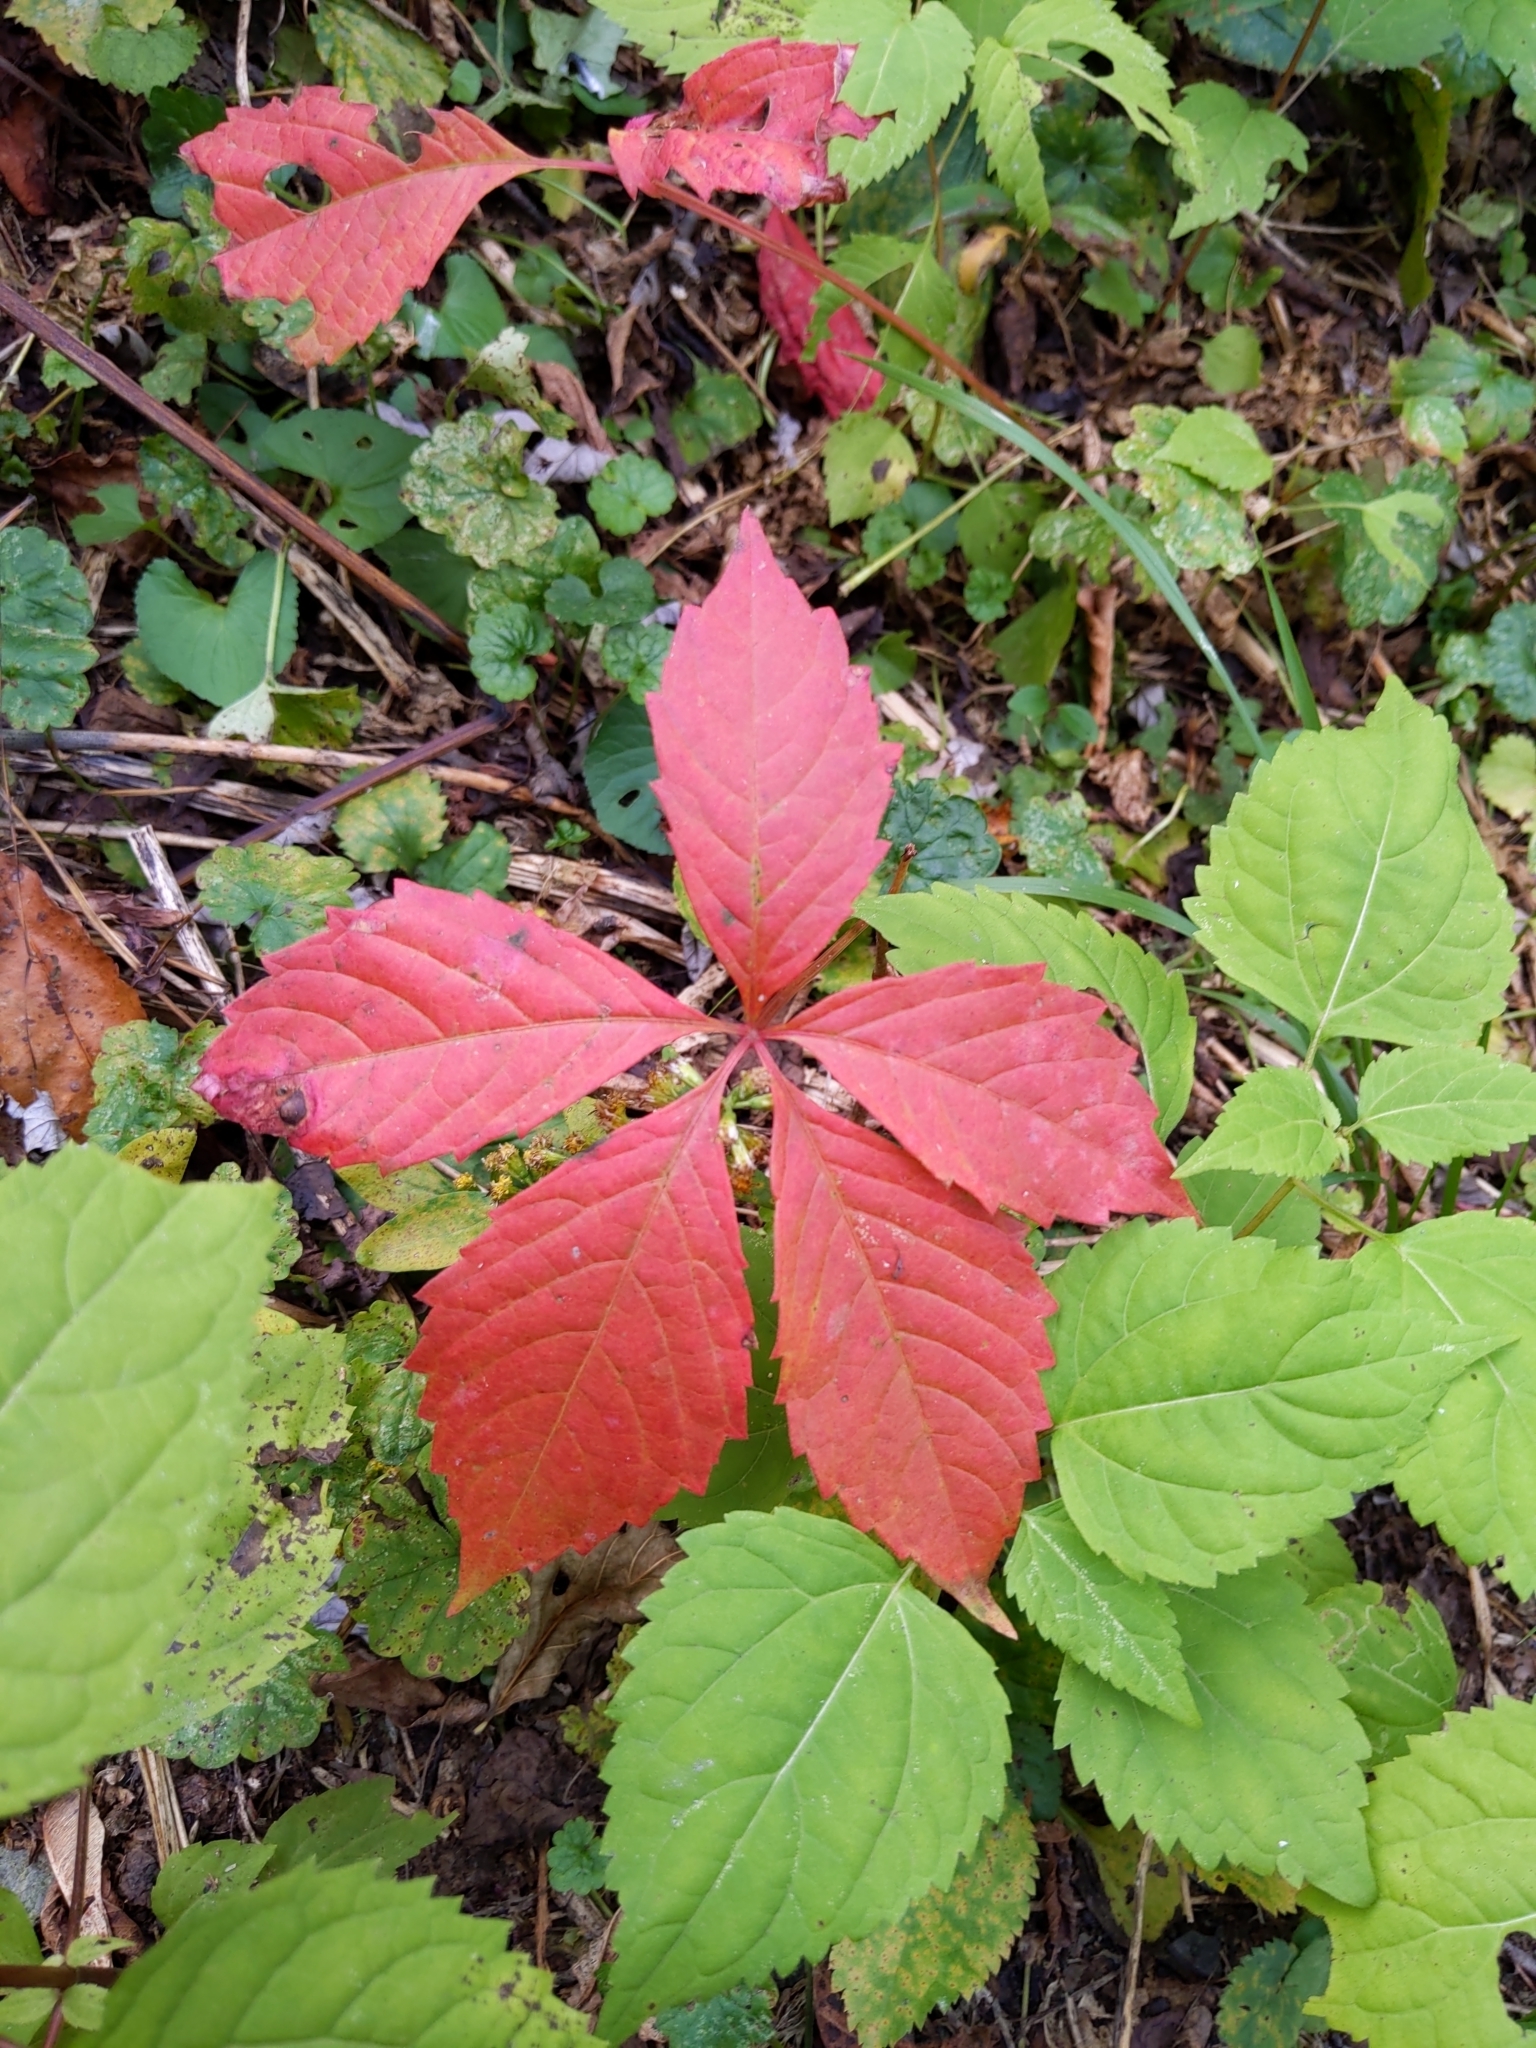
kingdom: Plantae
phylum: Tracheophyta
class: Magnoliopsida
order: Vitales
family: Vitaceae
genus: Parthenocissus
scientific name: Parthenocissus quinquefolia
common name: Virginia-creeper
